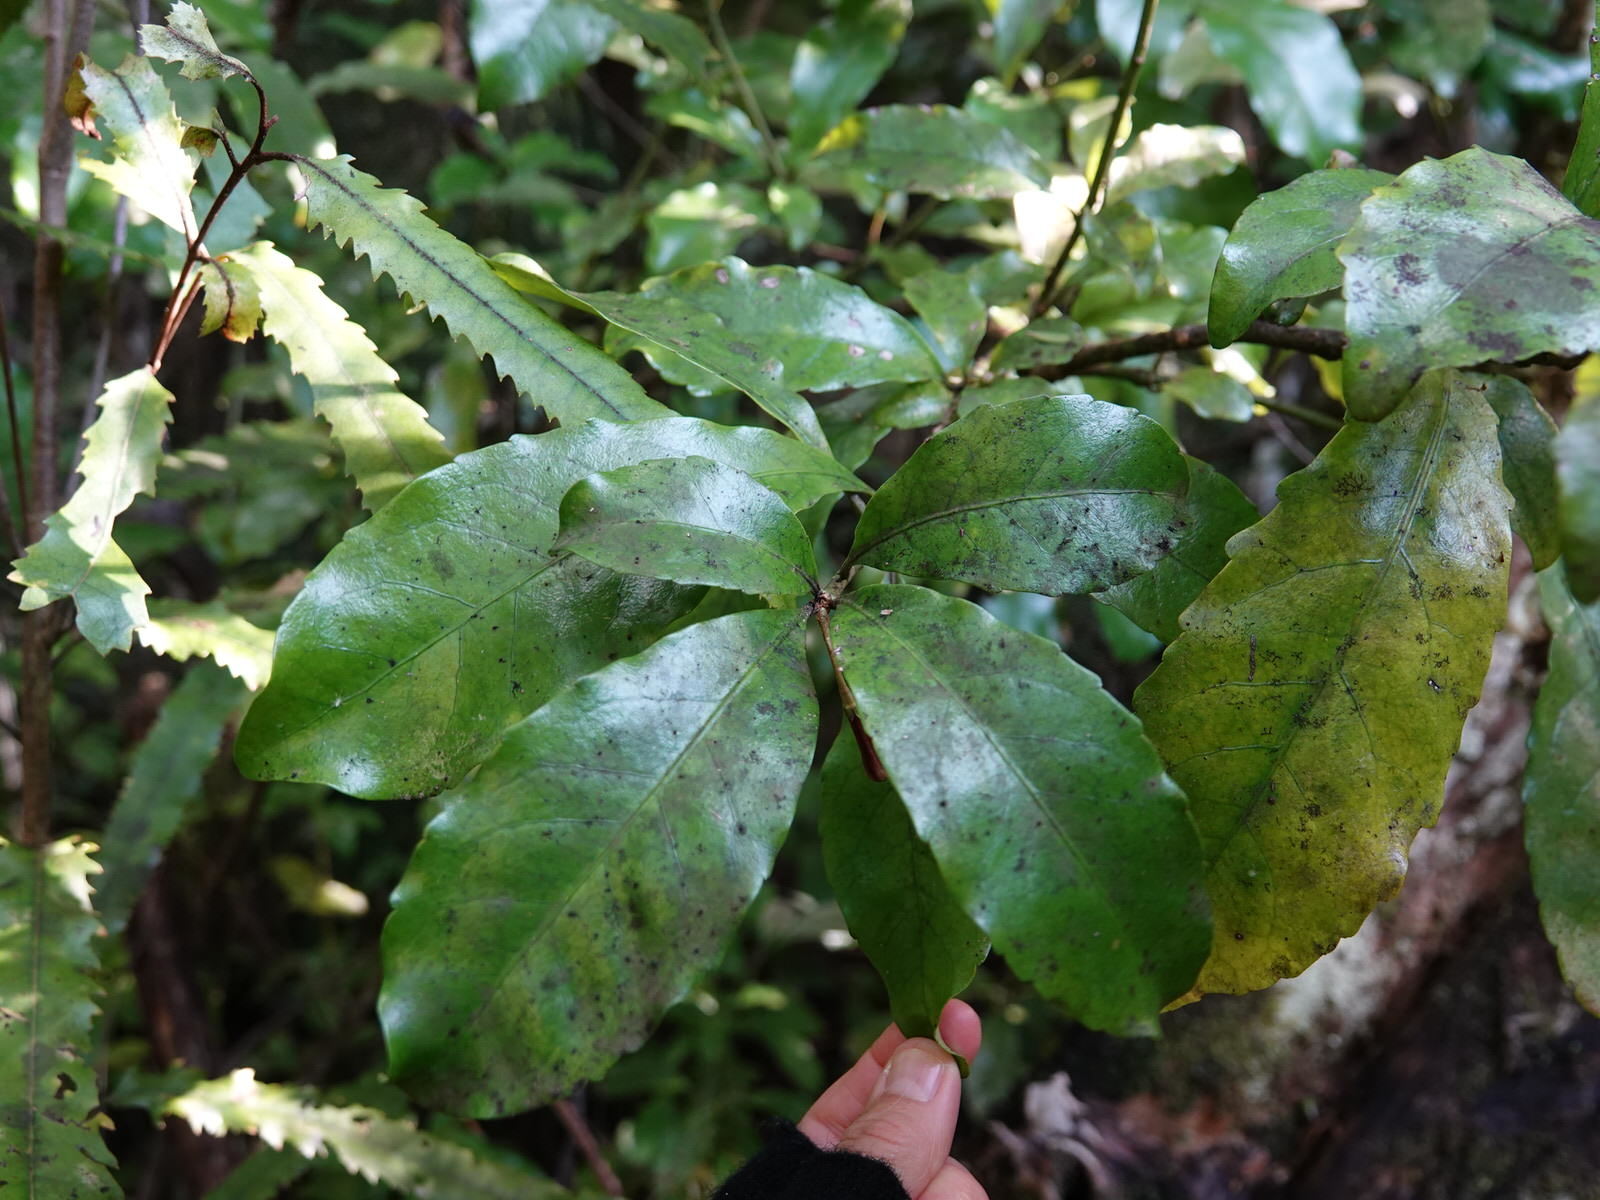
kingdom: Plantae
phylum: Tracheophyta
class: Magnoliopsida
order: Asterales
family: Alseuosmiaceae
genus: Alseuosmia
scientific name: Alseuosmia macrophylla
